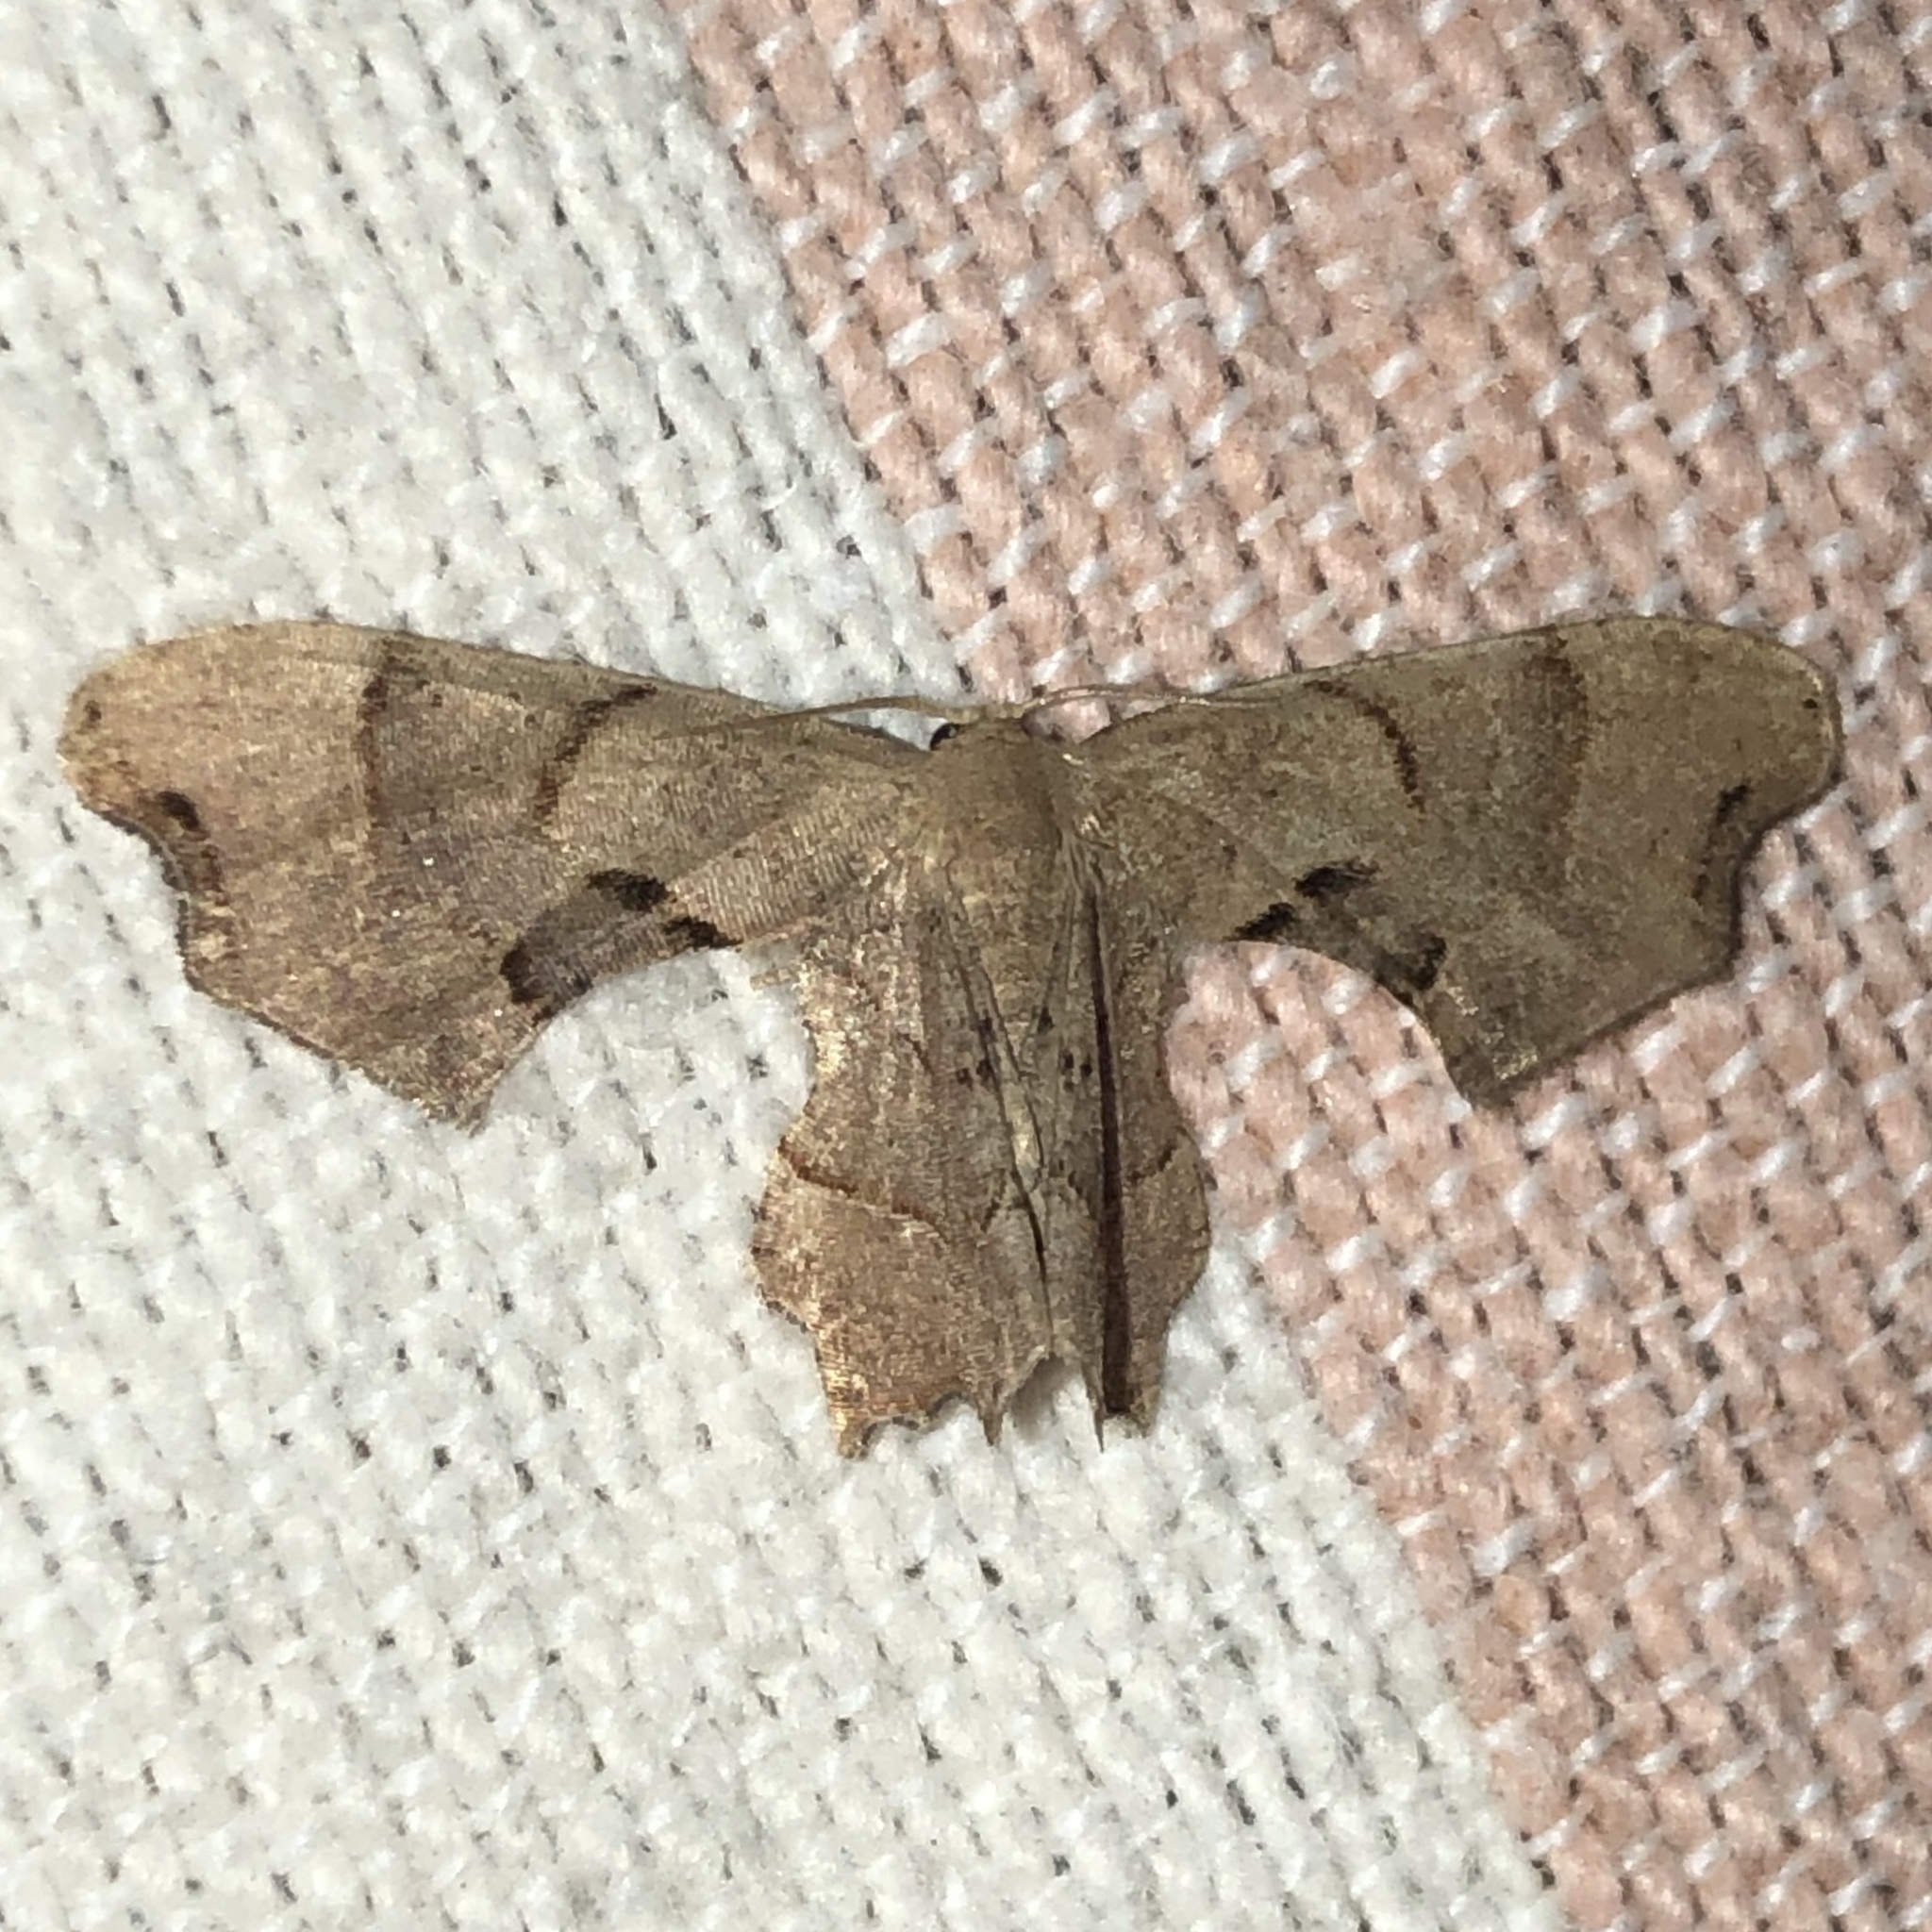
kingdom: Animalia
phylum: Arthropoda
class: Insecta
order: Lepidoptera
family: Uraniidae
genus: Epiplema
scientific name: Epiplema Calledapteryx dryopterata
